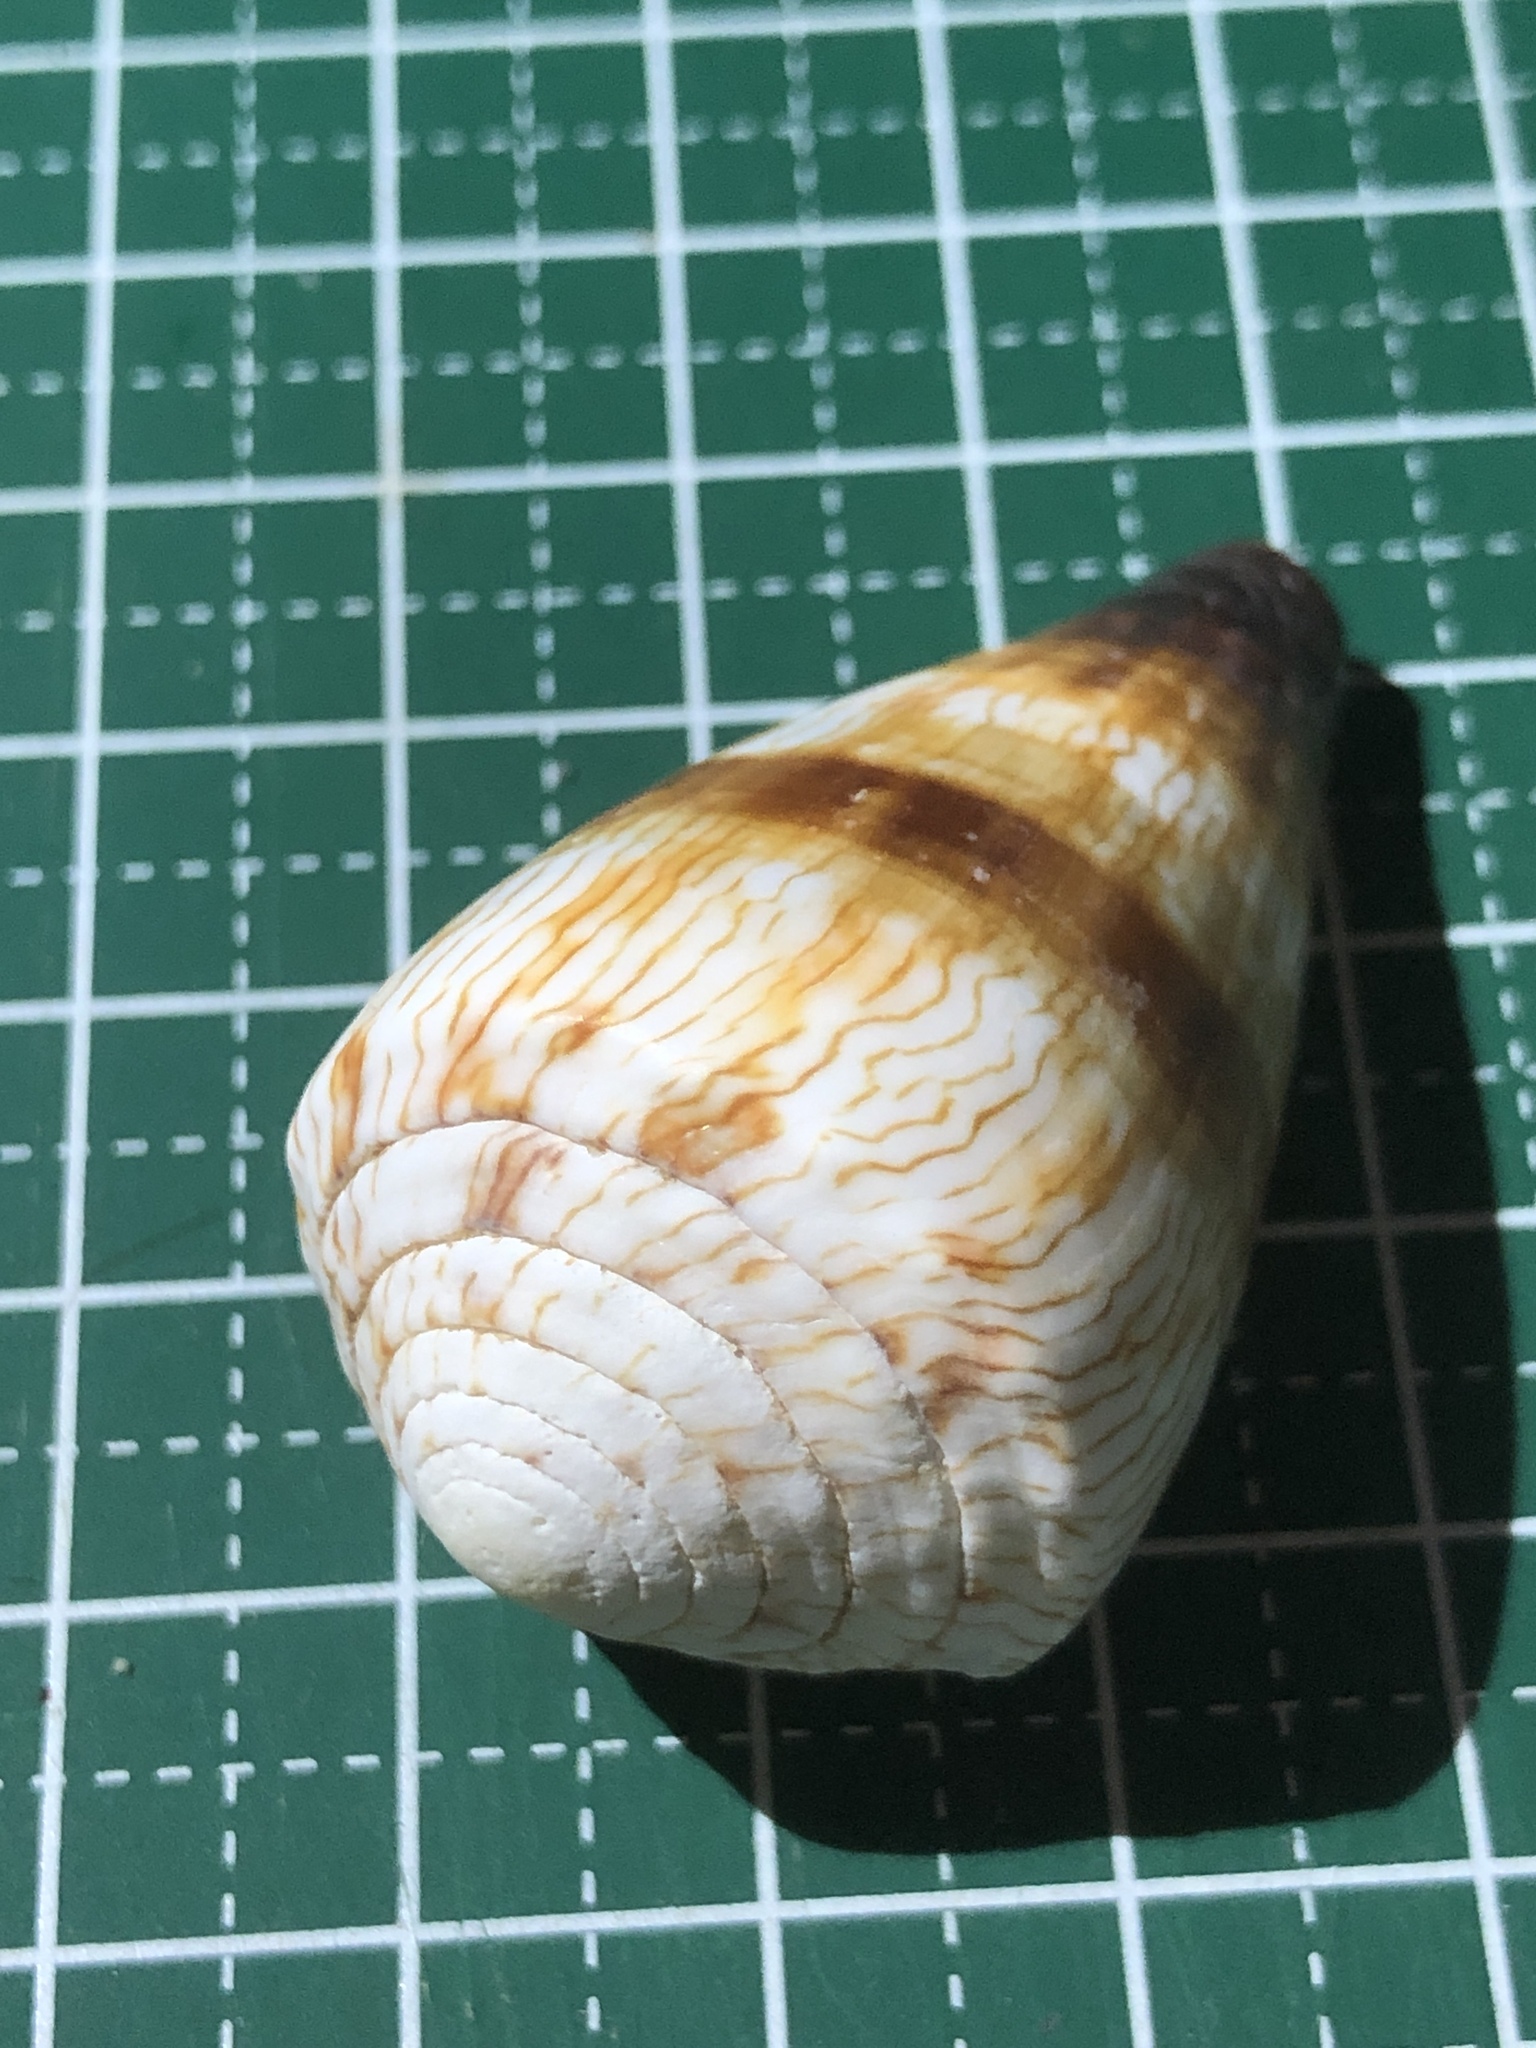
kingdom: Animalia
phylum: Mollusca
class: Gastropoda
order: Neogastropoda
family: Conidae
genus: Conus
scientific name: Conus miles
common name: Soldier cone
